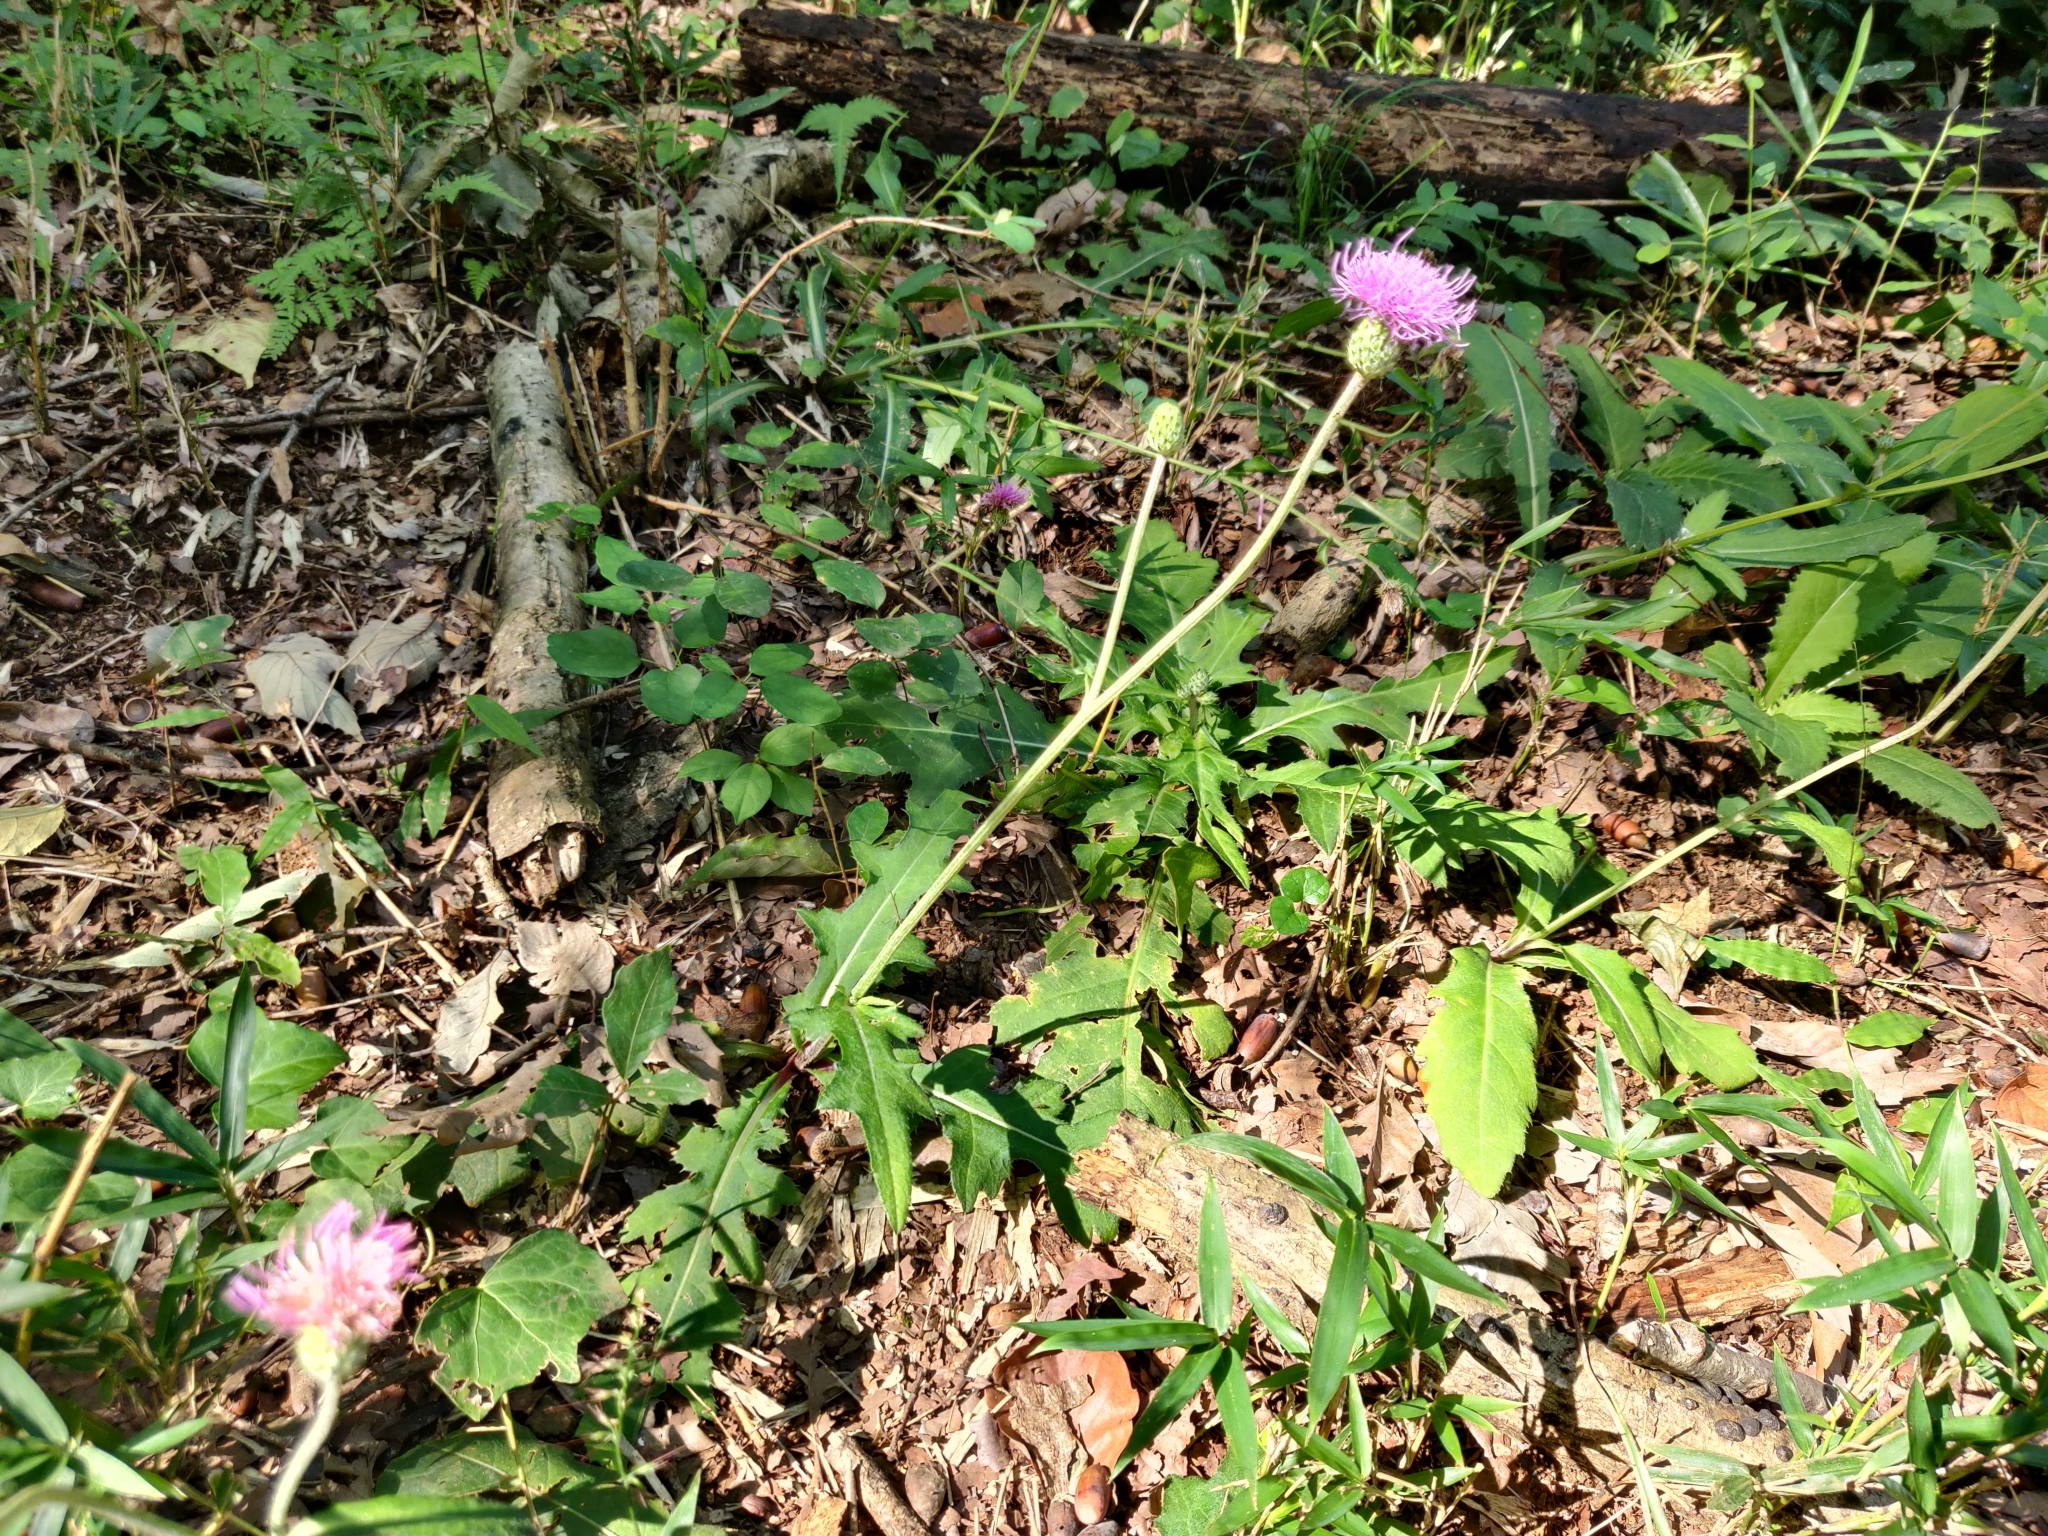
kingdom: Plantae
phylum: Tracheophyta
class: Magnoliopsida
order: Asterales
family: Asteraceae
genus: Cirsium
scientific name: Cirsium oligophyllum
